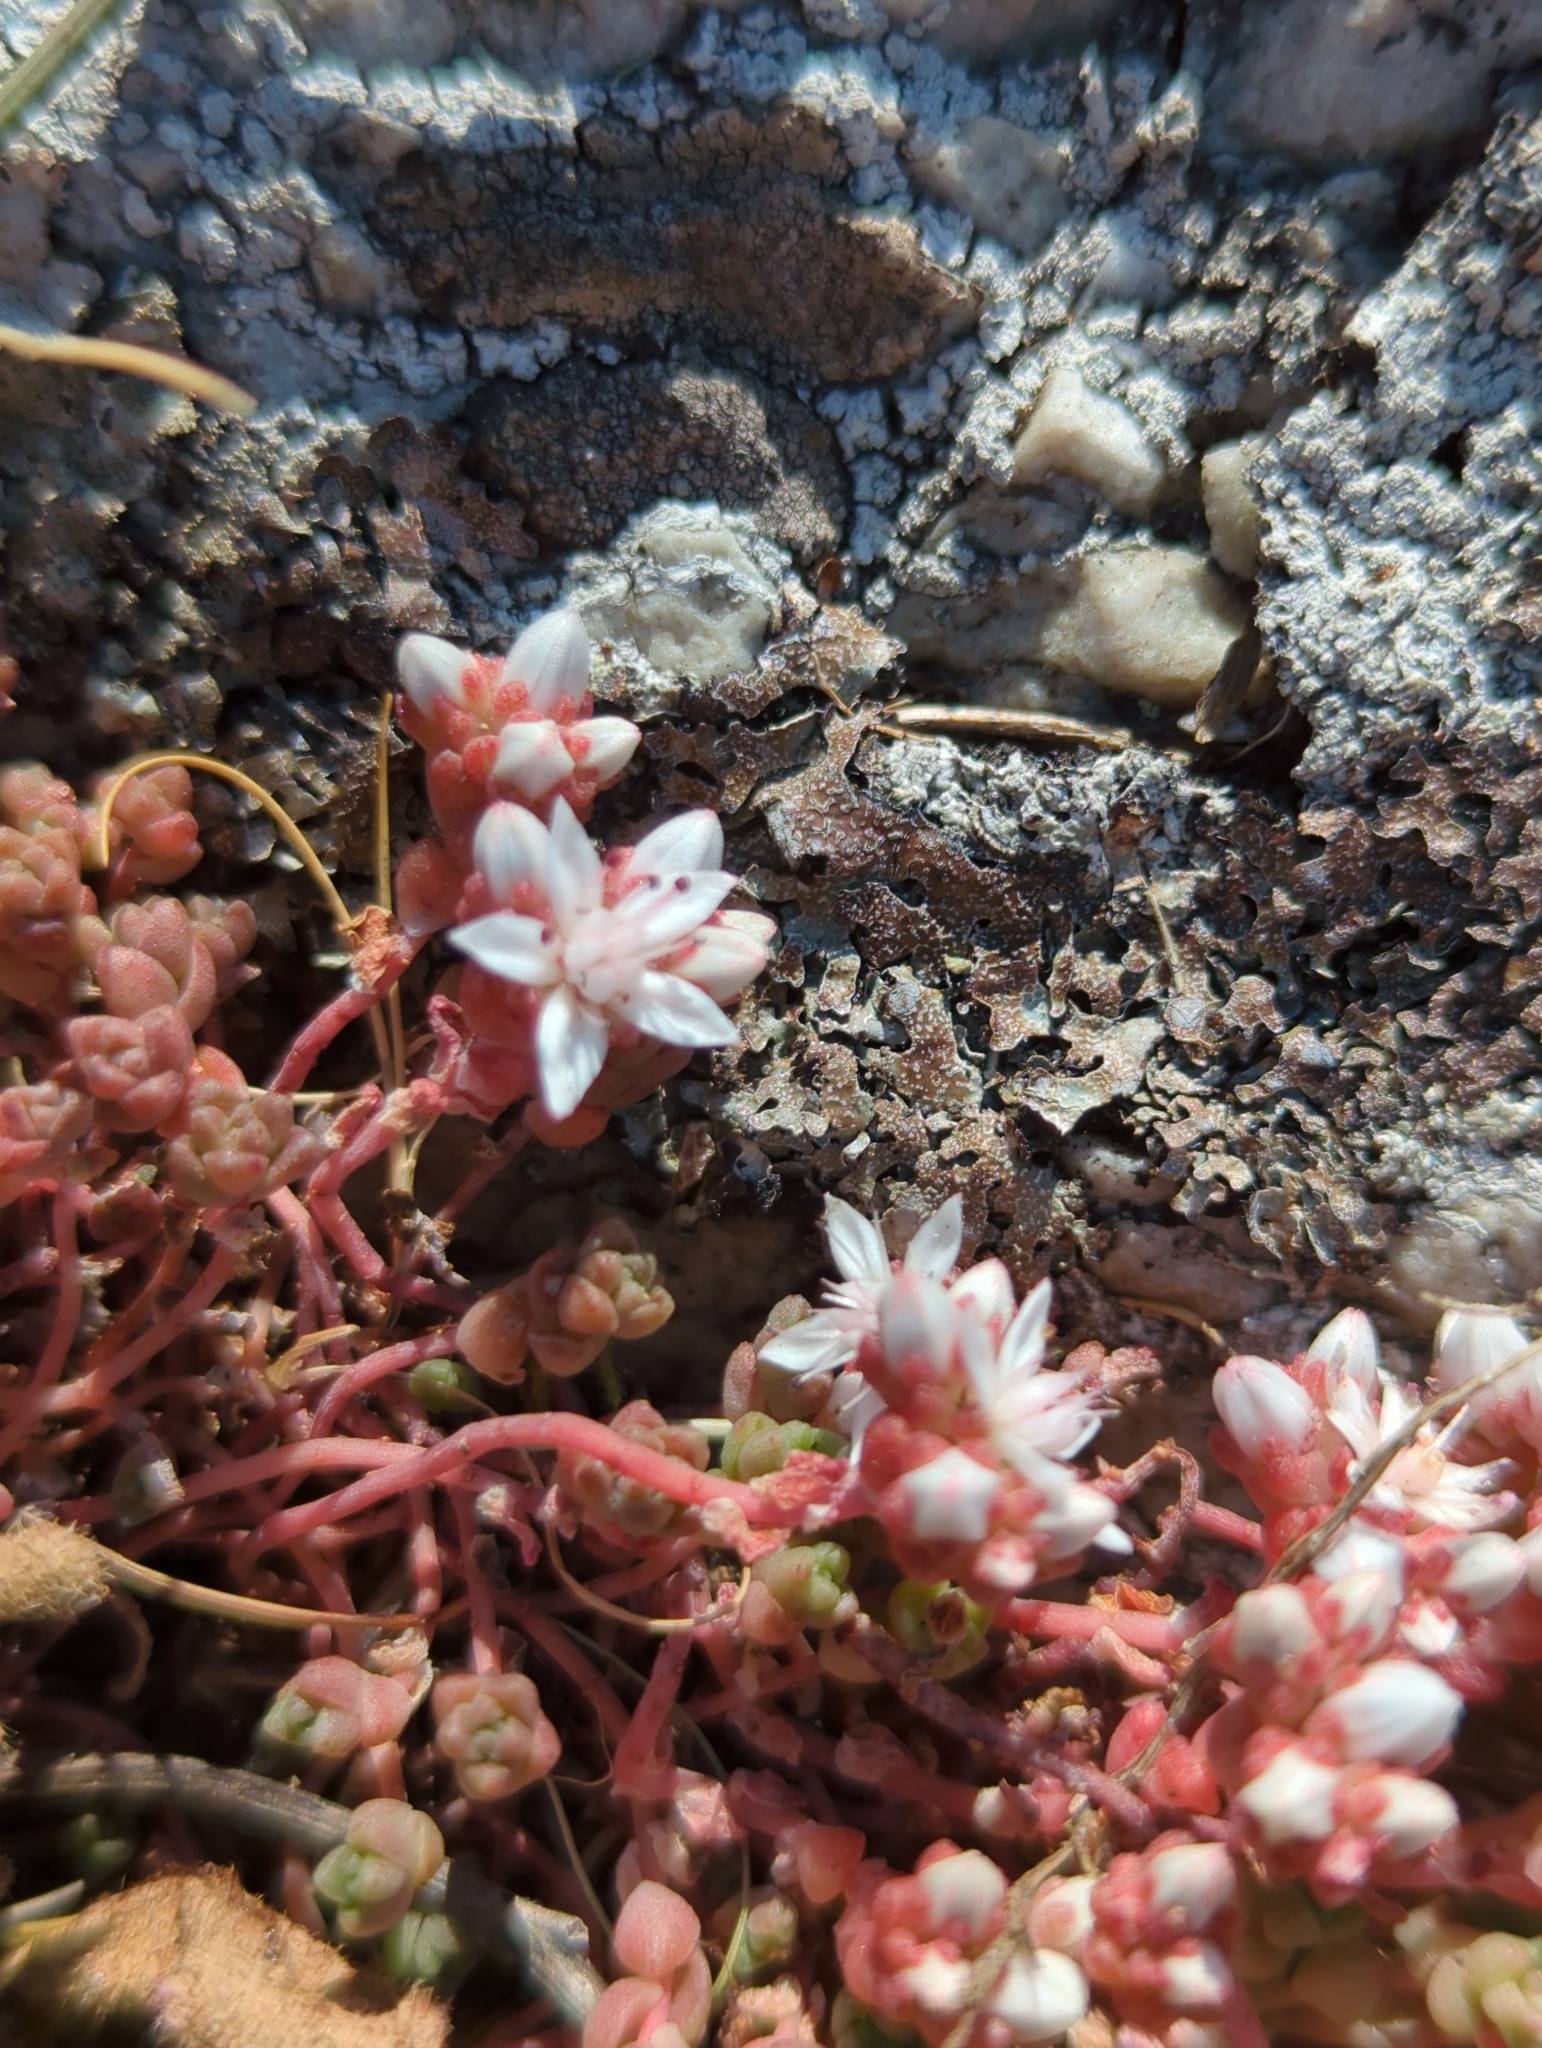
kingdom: Plantae
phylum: Tracheophyta
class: Magnoliopsida
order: Saxifragales
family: Crassulaceae
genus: Sedum
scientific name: Sedum anglicum
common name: English stonecrop
